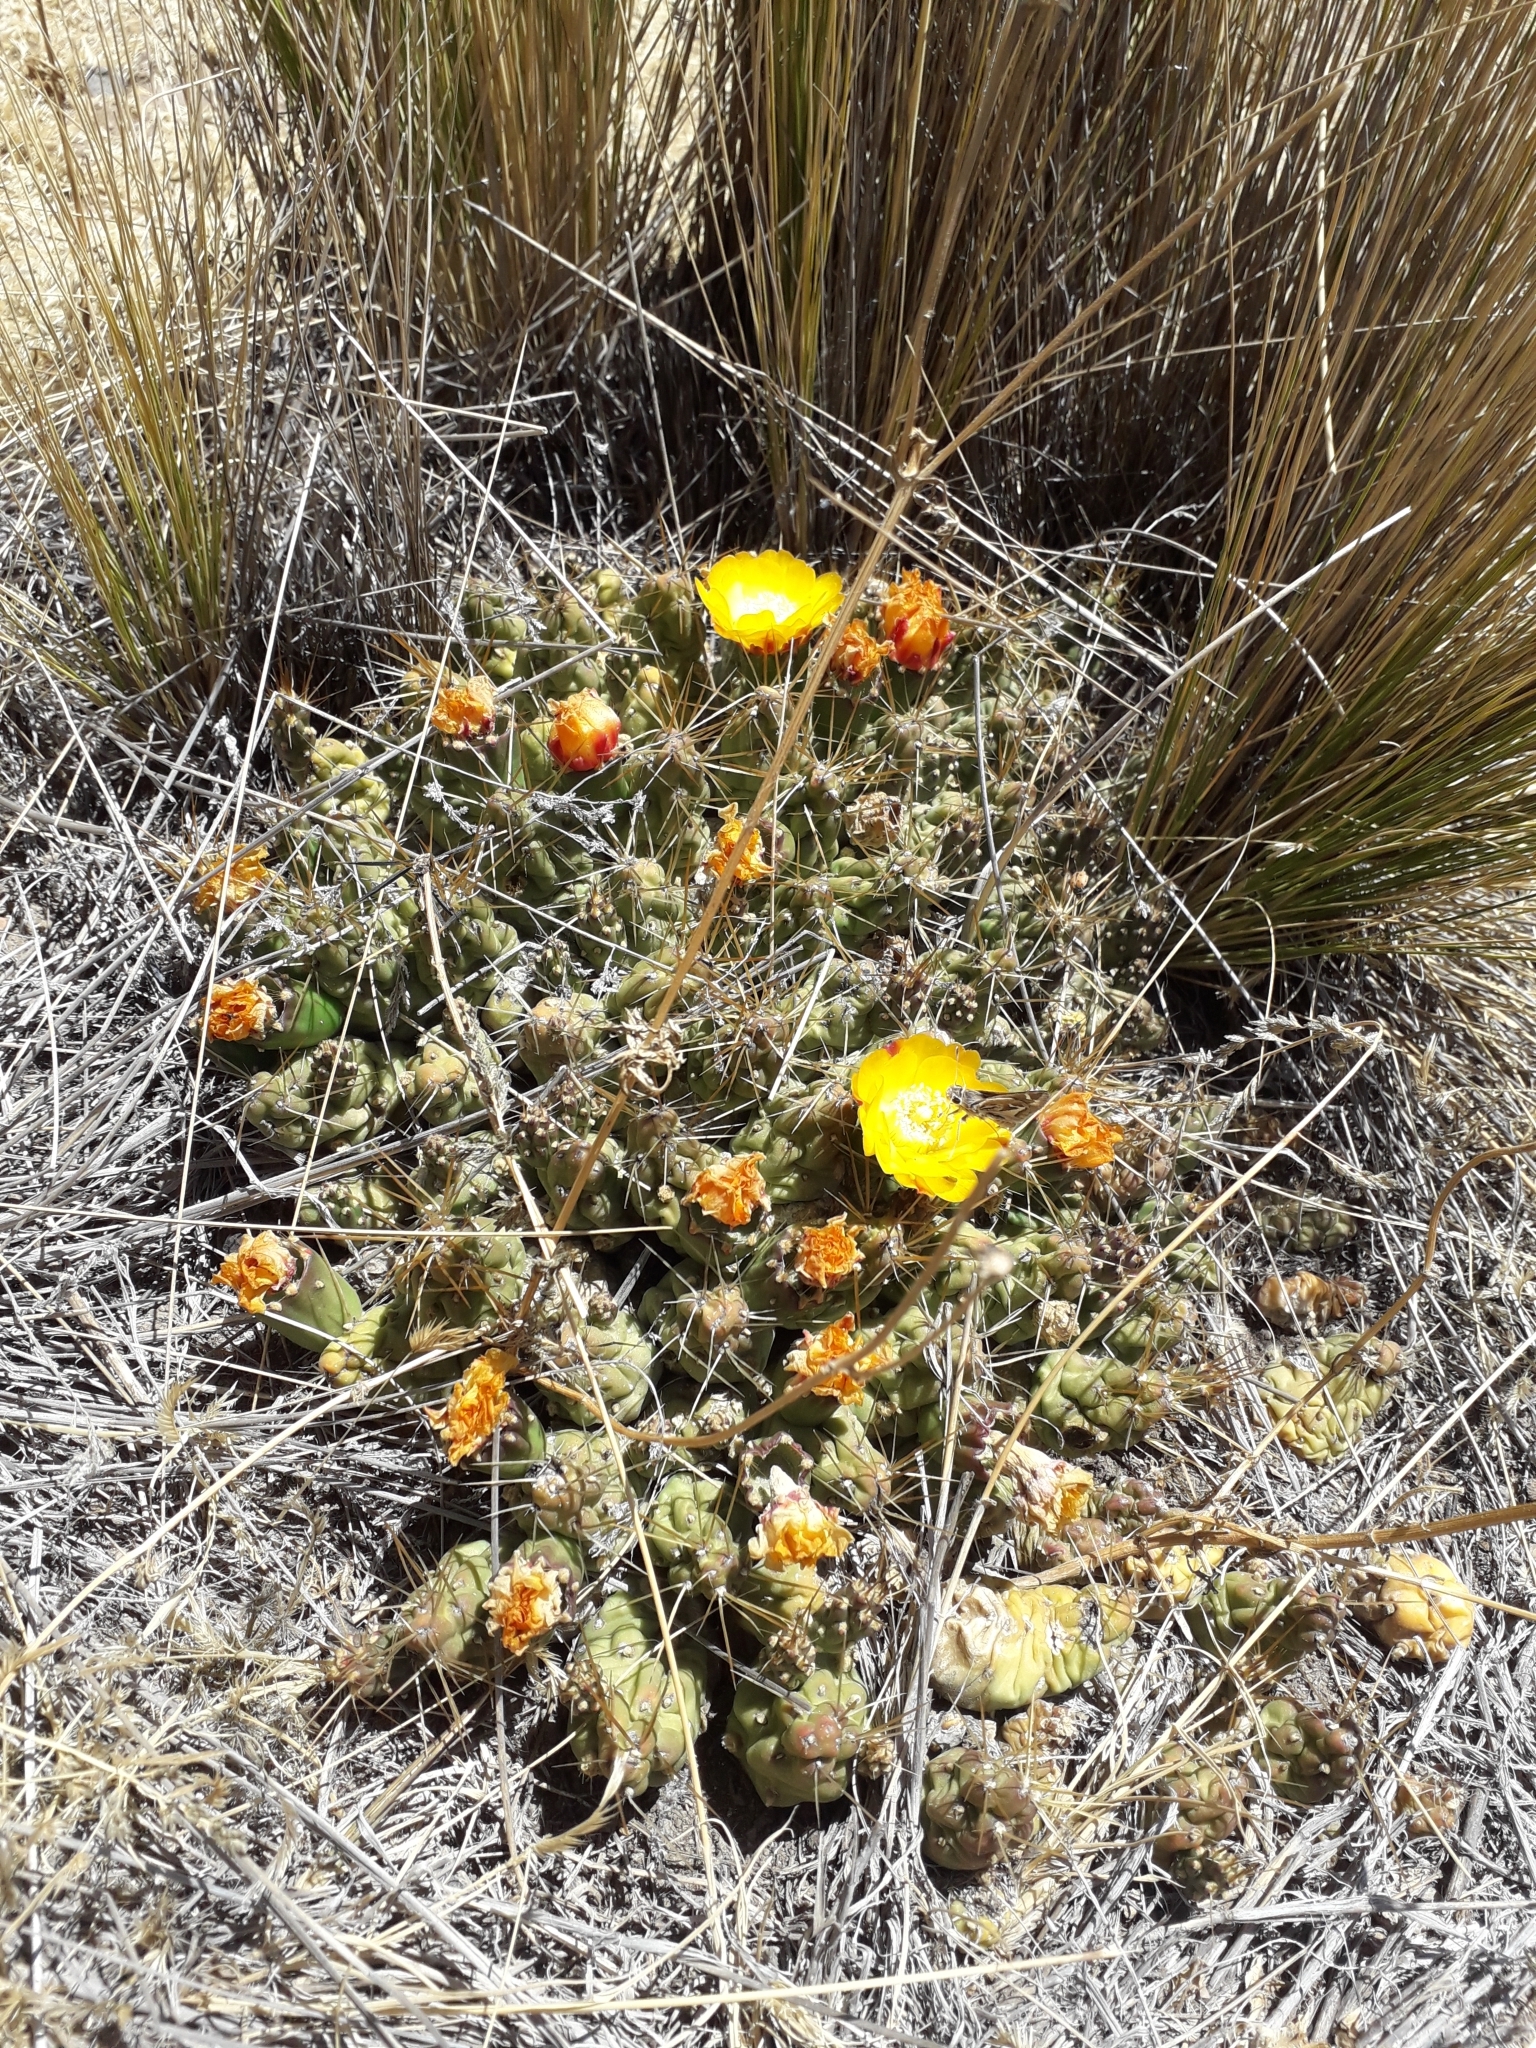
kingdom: Plantae
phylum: Tracheophyta
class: Magnoliopsida
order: Caryophyllales
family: Cactaceae
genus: Cumulopuntia
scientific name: Cumulopuntia boliviana
